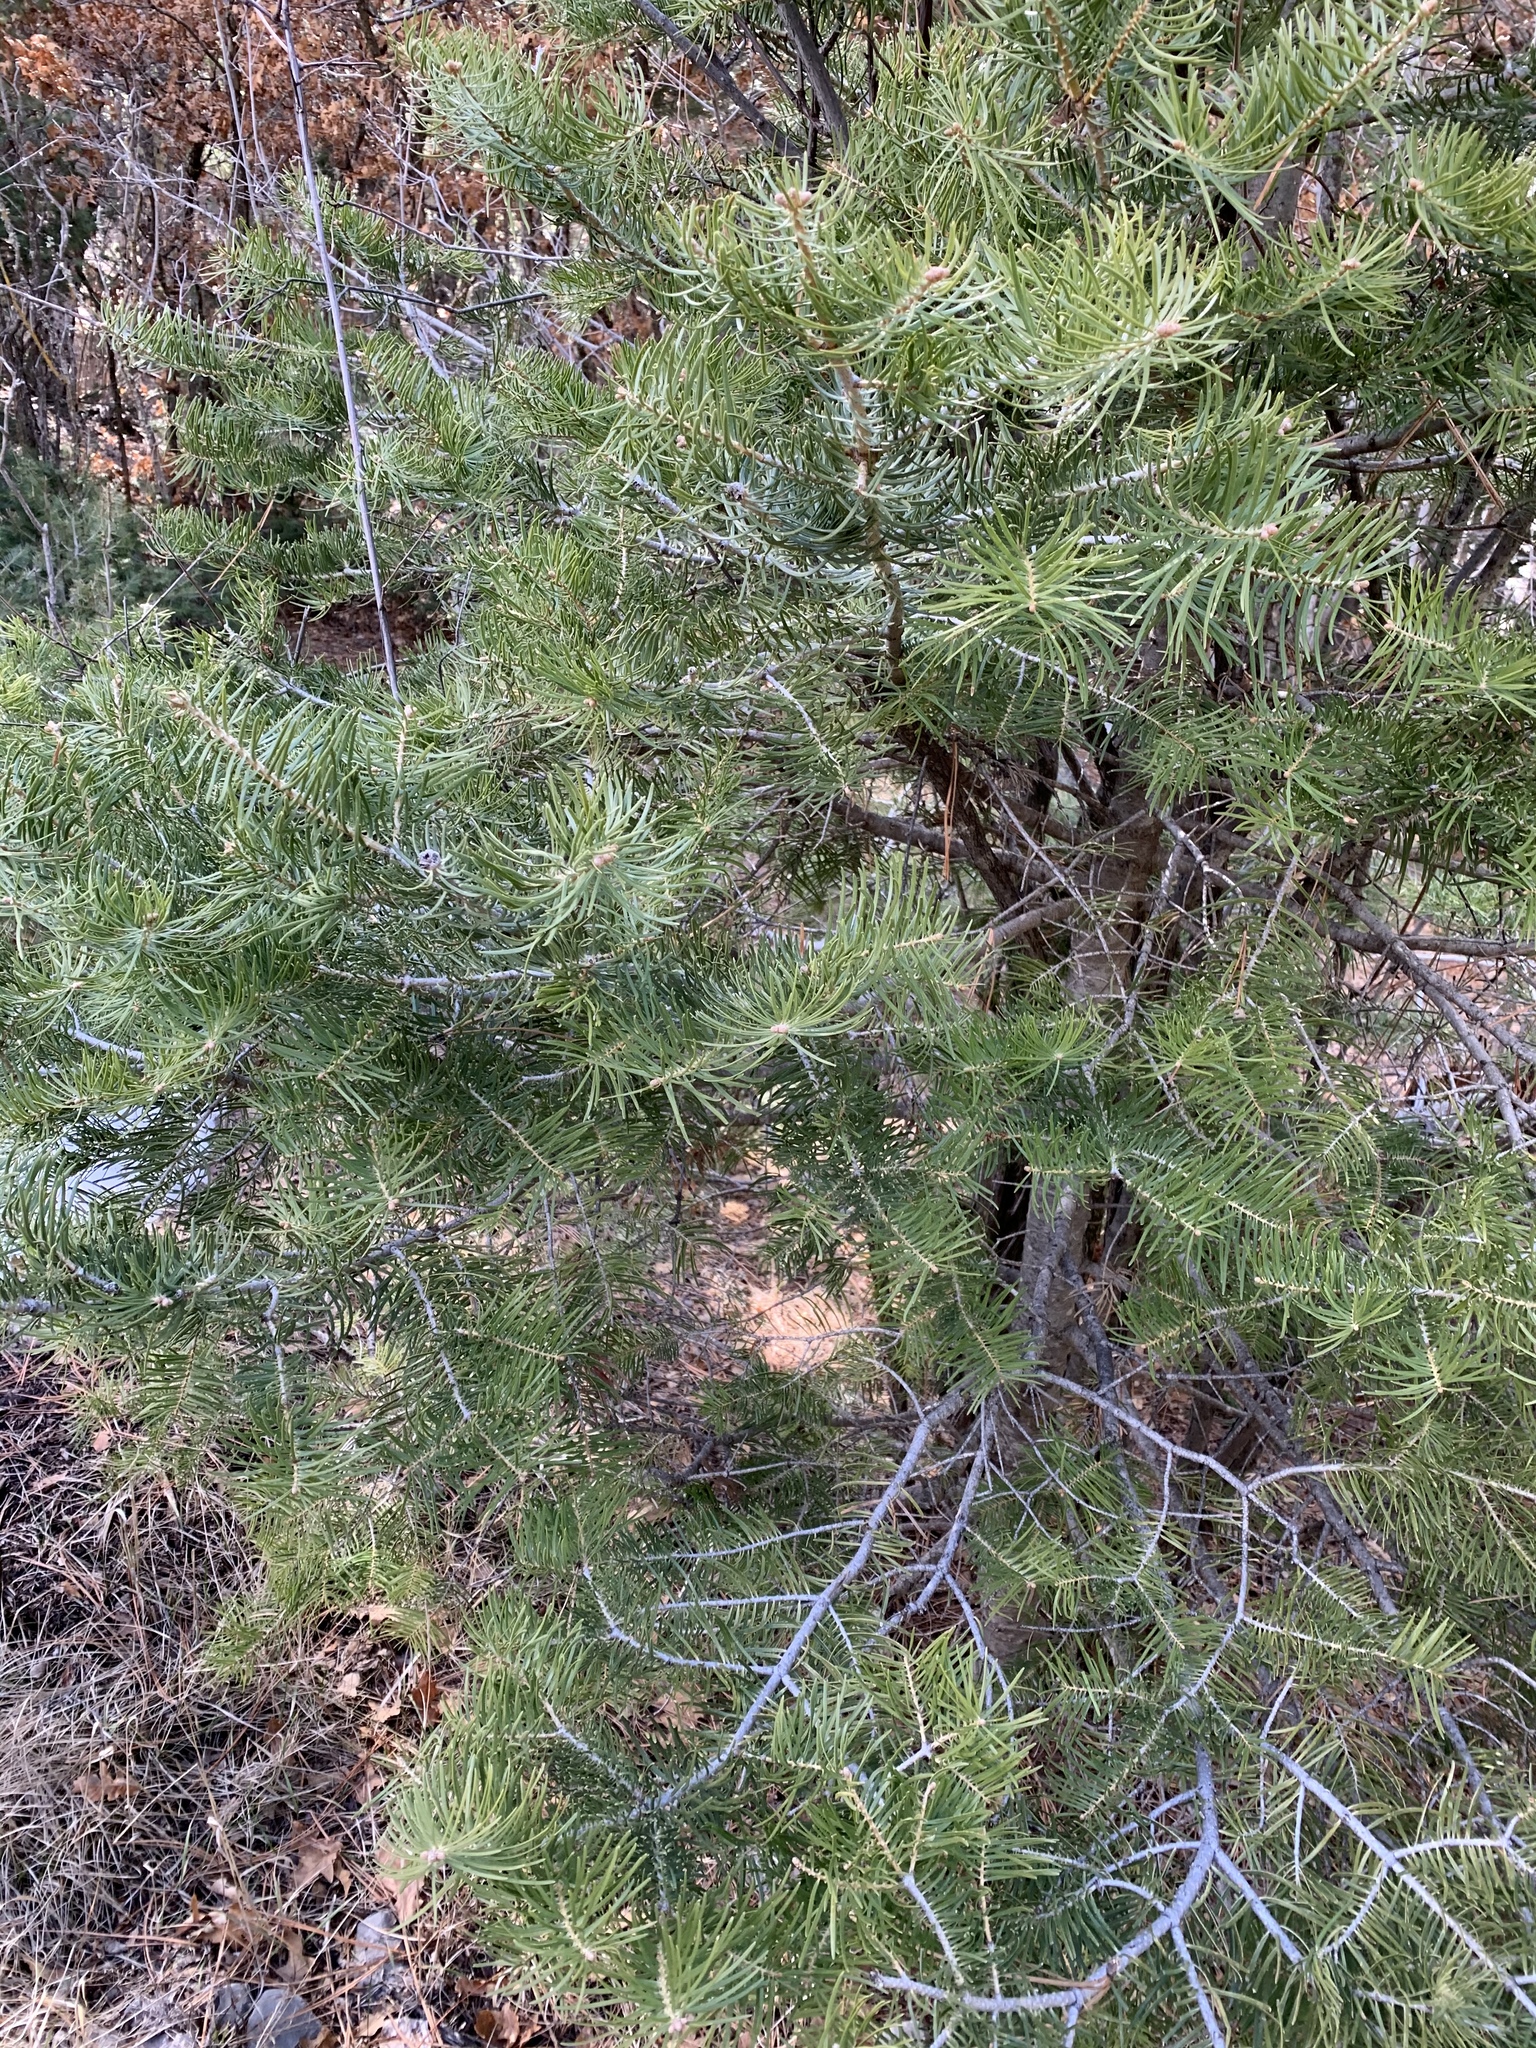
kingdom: Plantae
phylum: Tracheophyta
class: Pinopsida
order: Pinales
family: Pinaceae
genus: Abies
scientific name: Abies concolor
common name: Colorado fir
